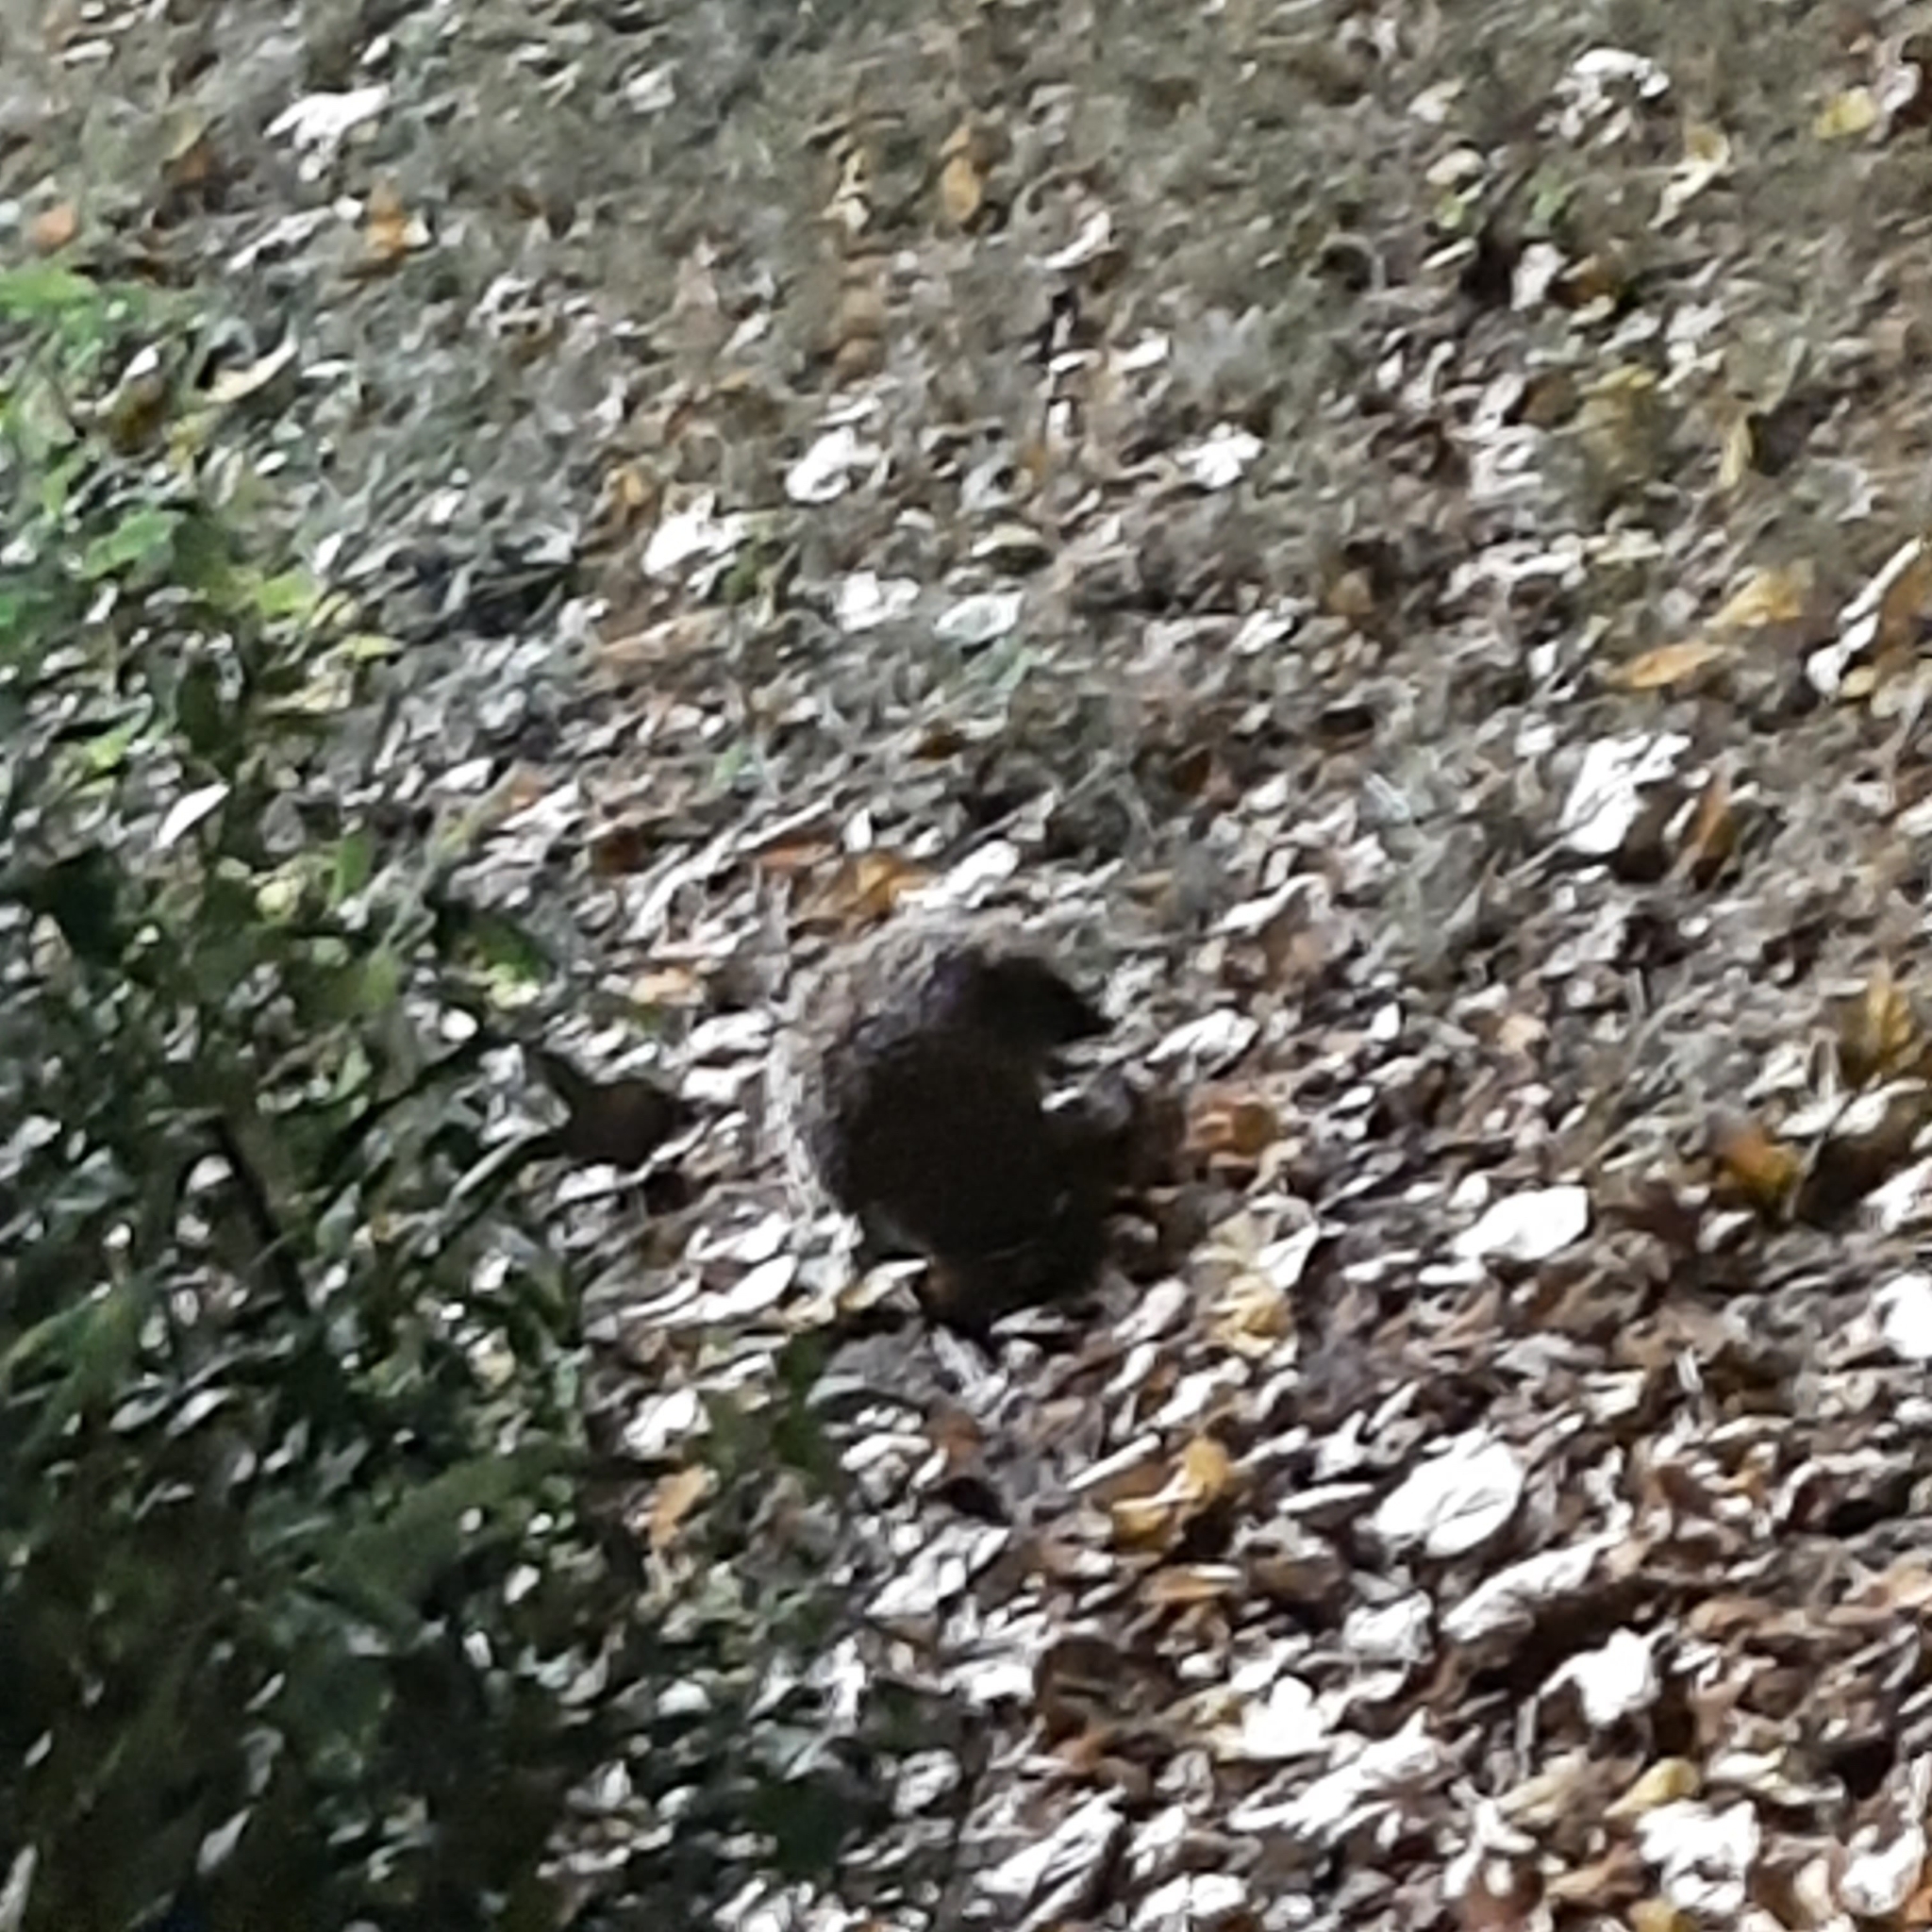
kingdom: Animalia
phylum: Chordata
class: Mammalia
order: Erinaceomorpha
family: Erinaceidae
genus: Erinaceus
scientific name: Erinaceus roumanicus
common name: Northern white-breasted hedgehog
